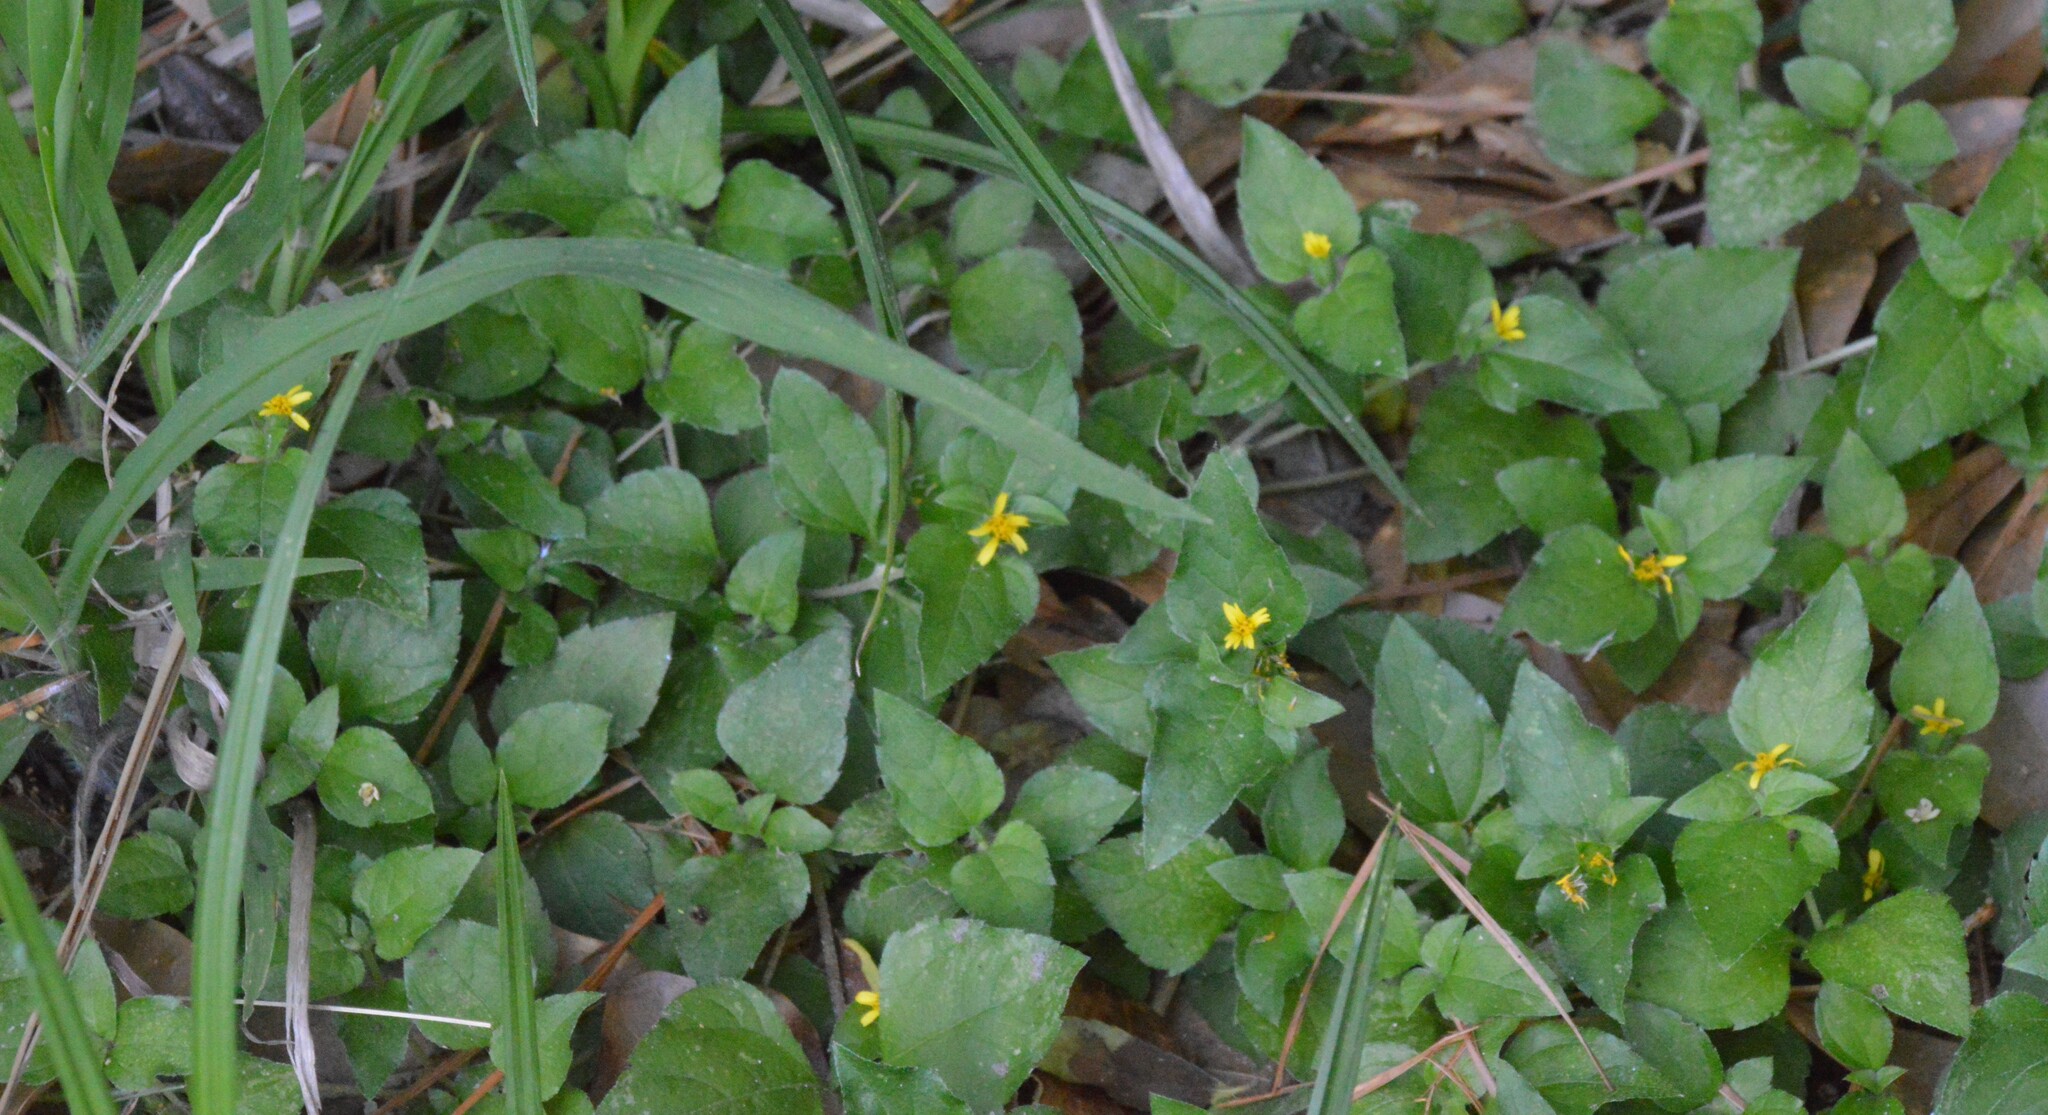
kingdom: Plantae
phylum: Tracheophyta
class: Magnoliopsida
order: Asterales
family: Asteraceae
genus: Calyptocarpus
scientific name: Calyptocarpus vialis
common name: Straggler daisy
